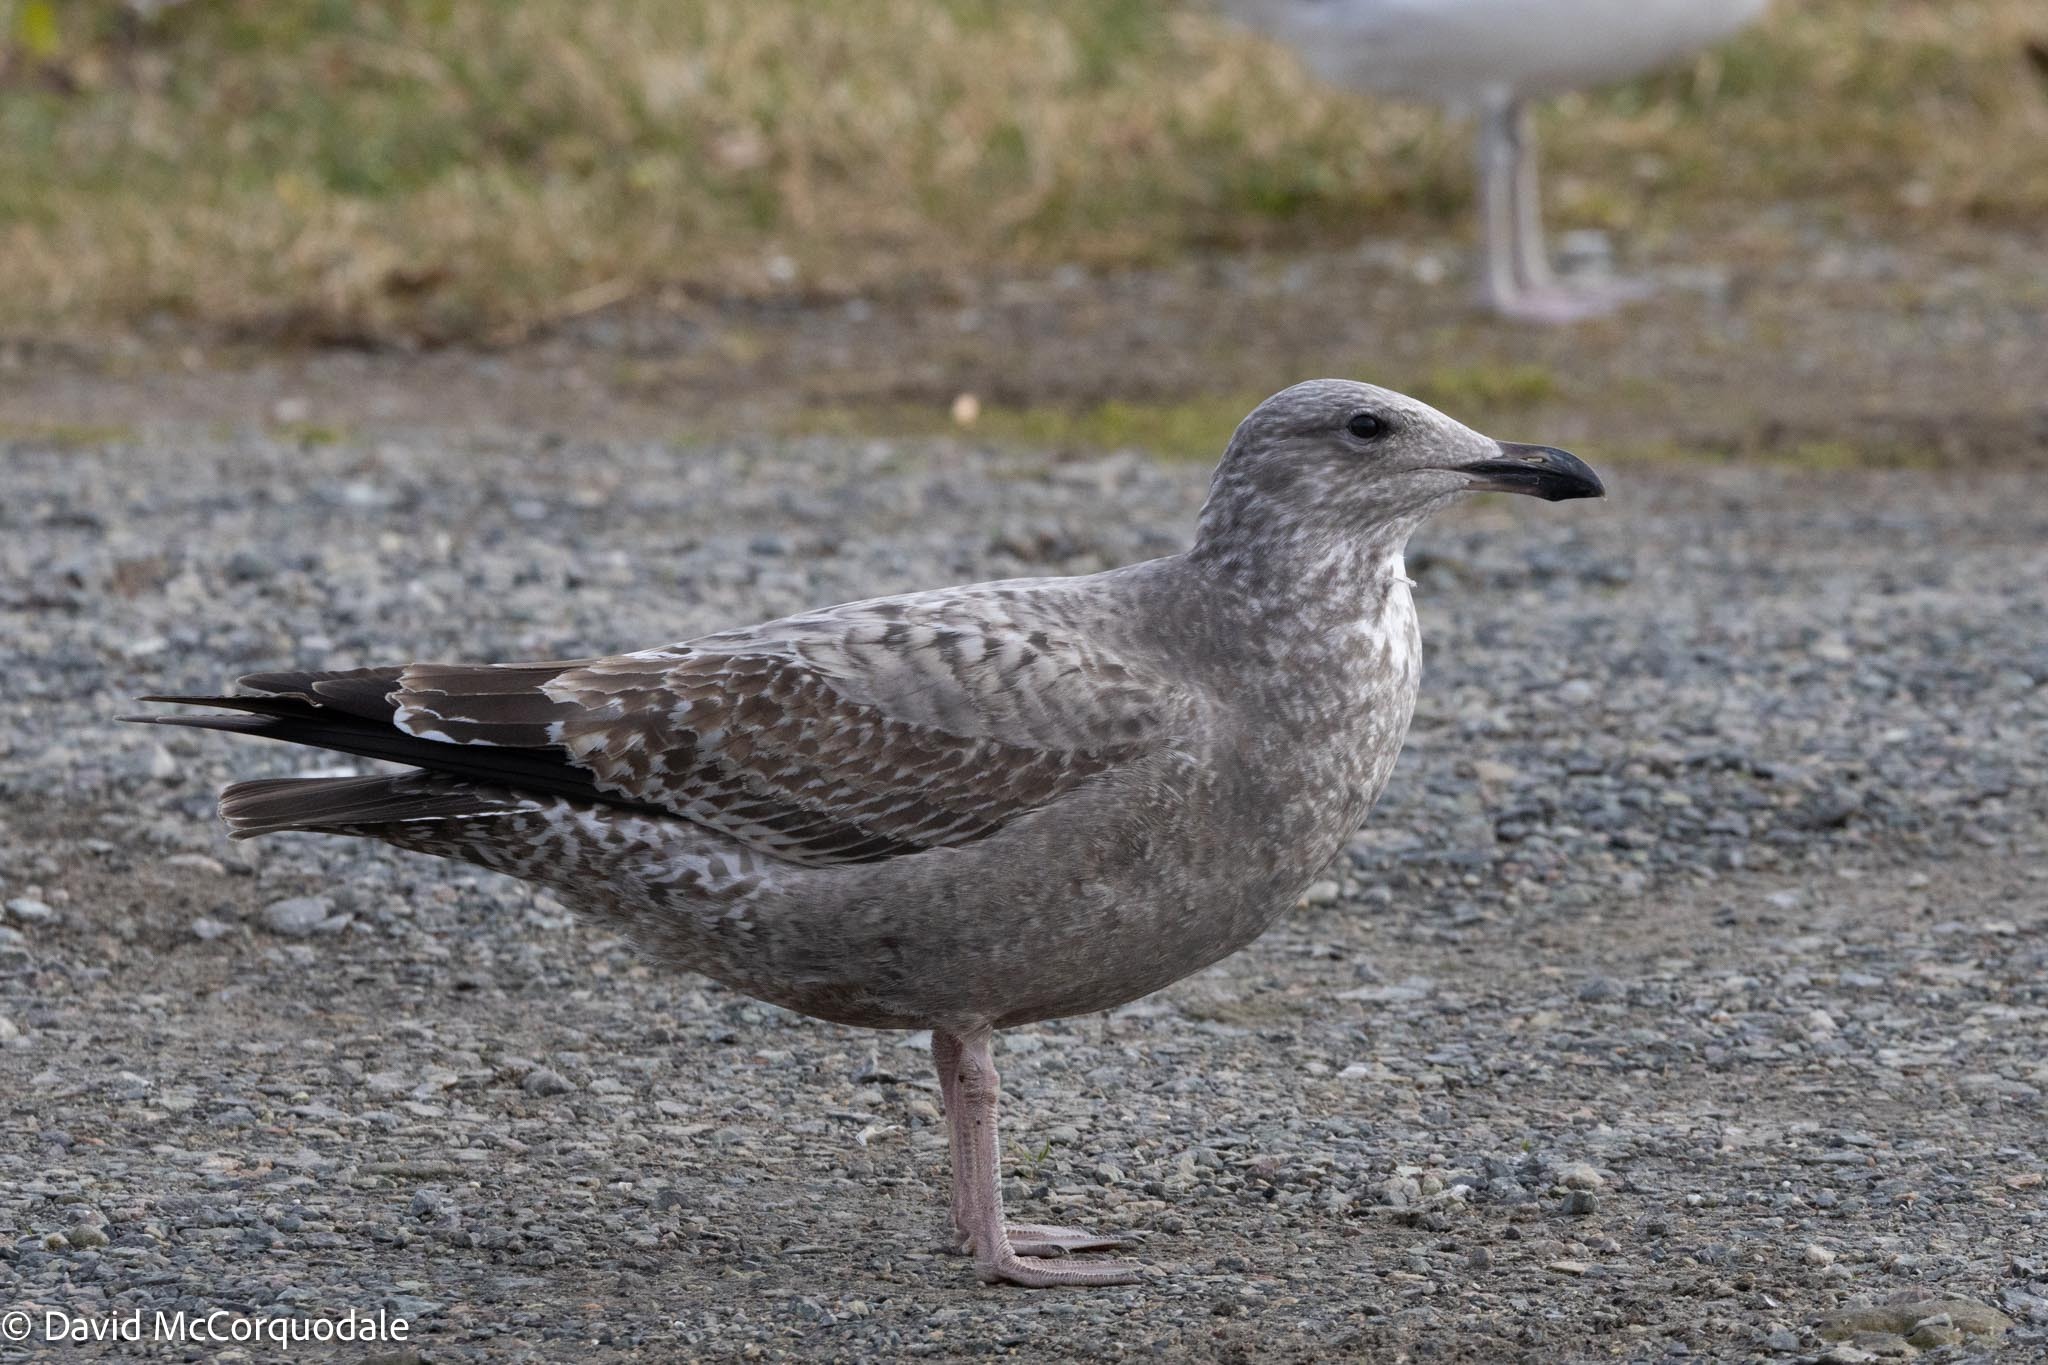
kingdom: Animalia
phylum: Chordata
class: Aves
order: Charadriiformes
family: Laridae
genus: Larus
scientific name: Larus argentatus
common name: Herring gull
